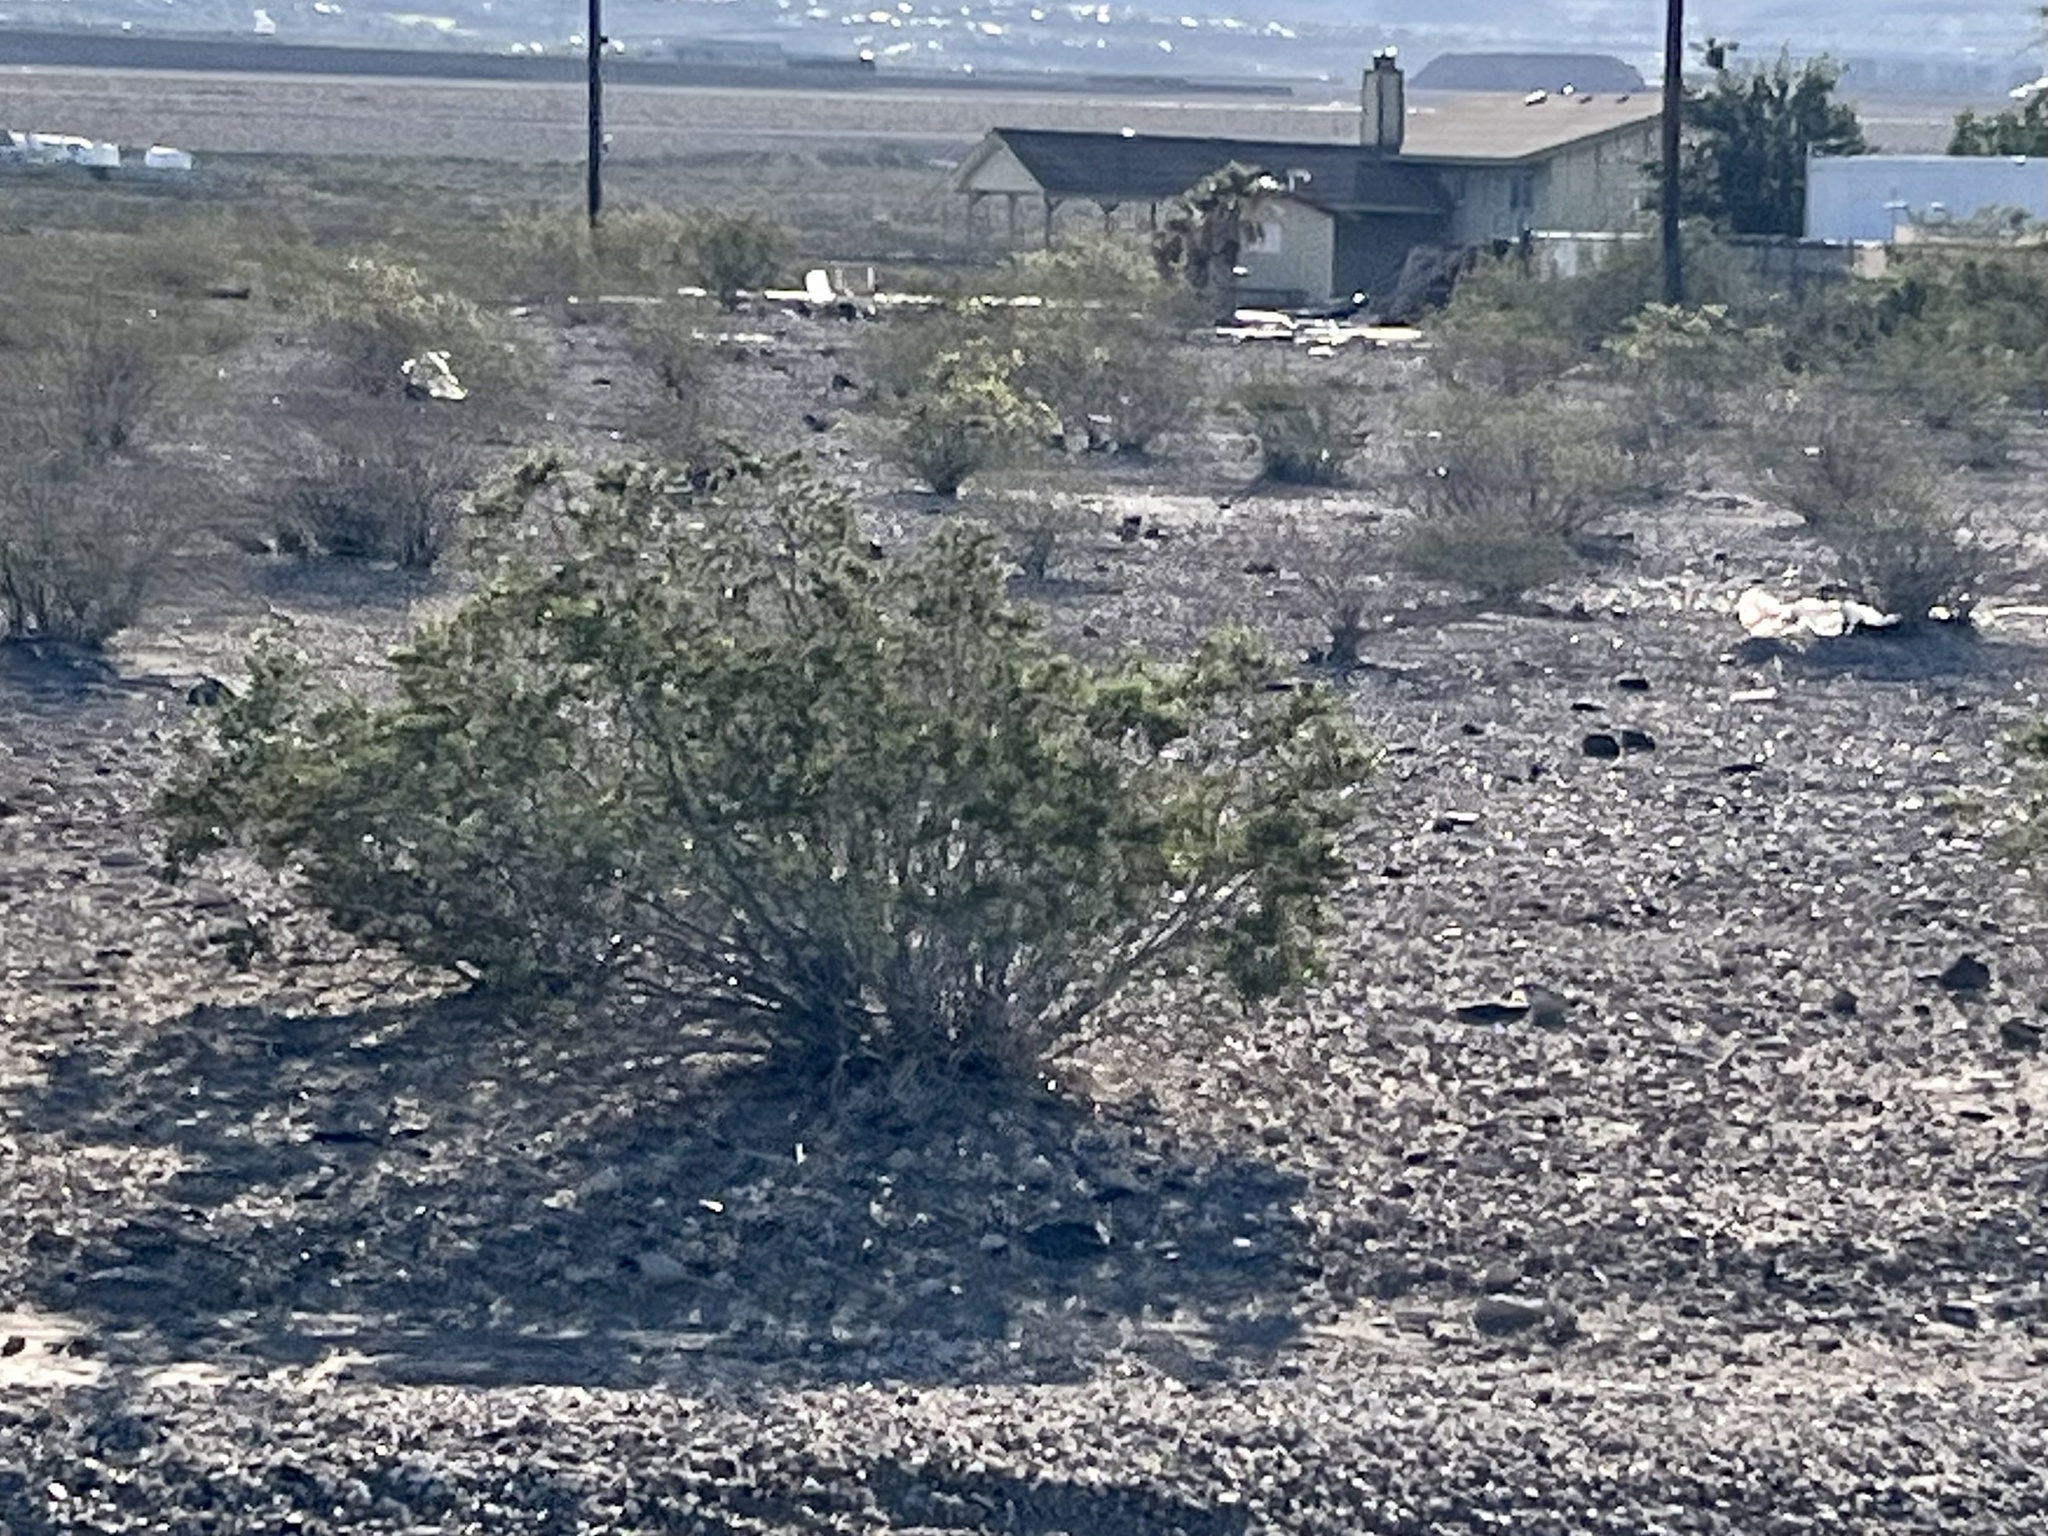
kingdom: Plantae
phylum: Tracheophyta
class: Magnoliopsida
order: Zygophyllales
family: Zygophyllaceae
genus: Larrea
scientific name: Larrea tridentata
